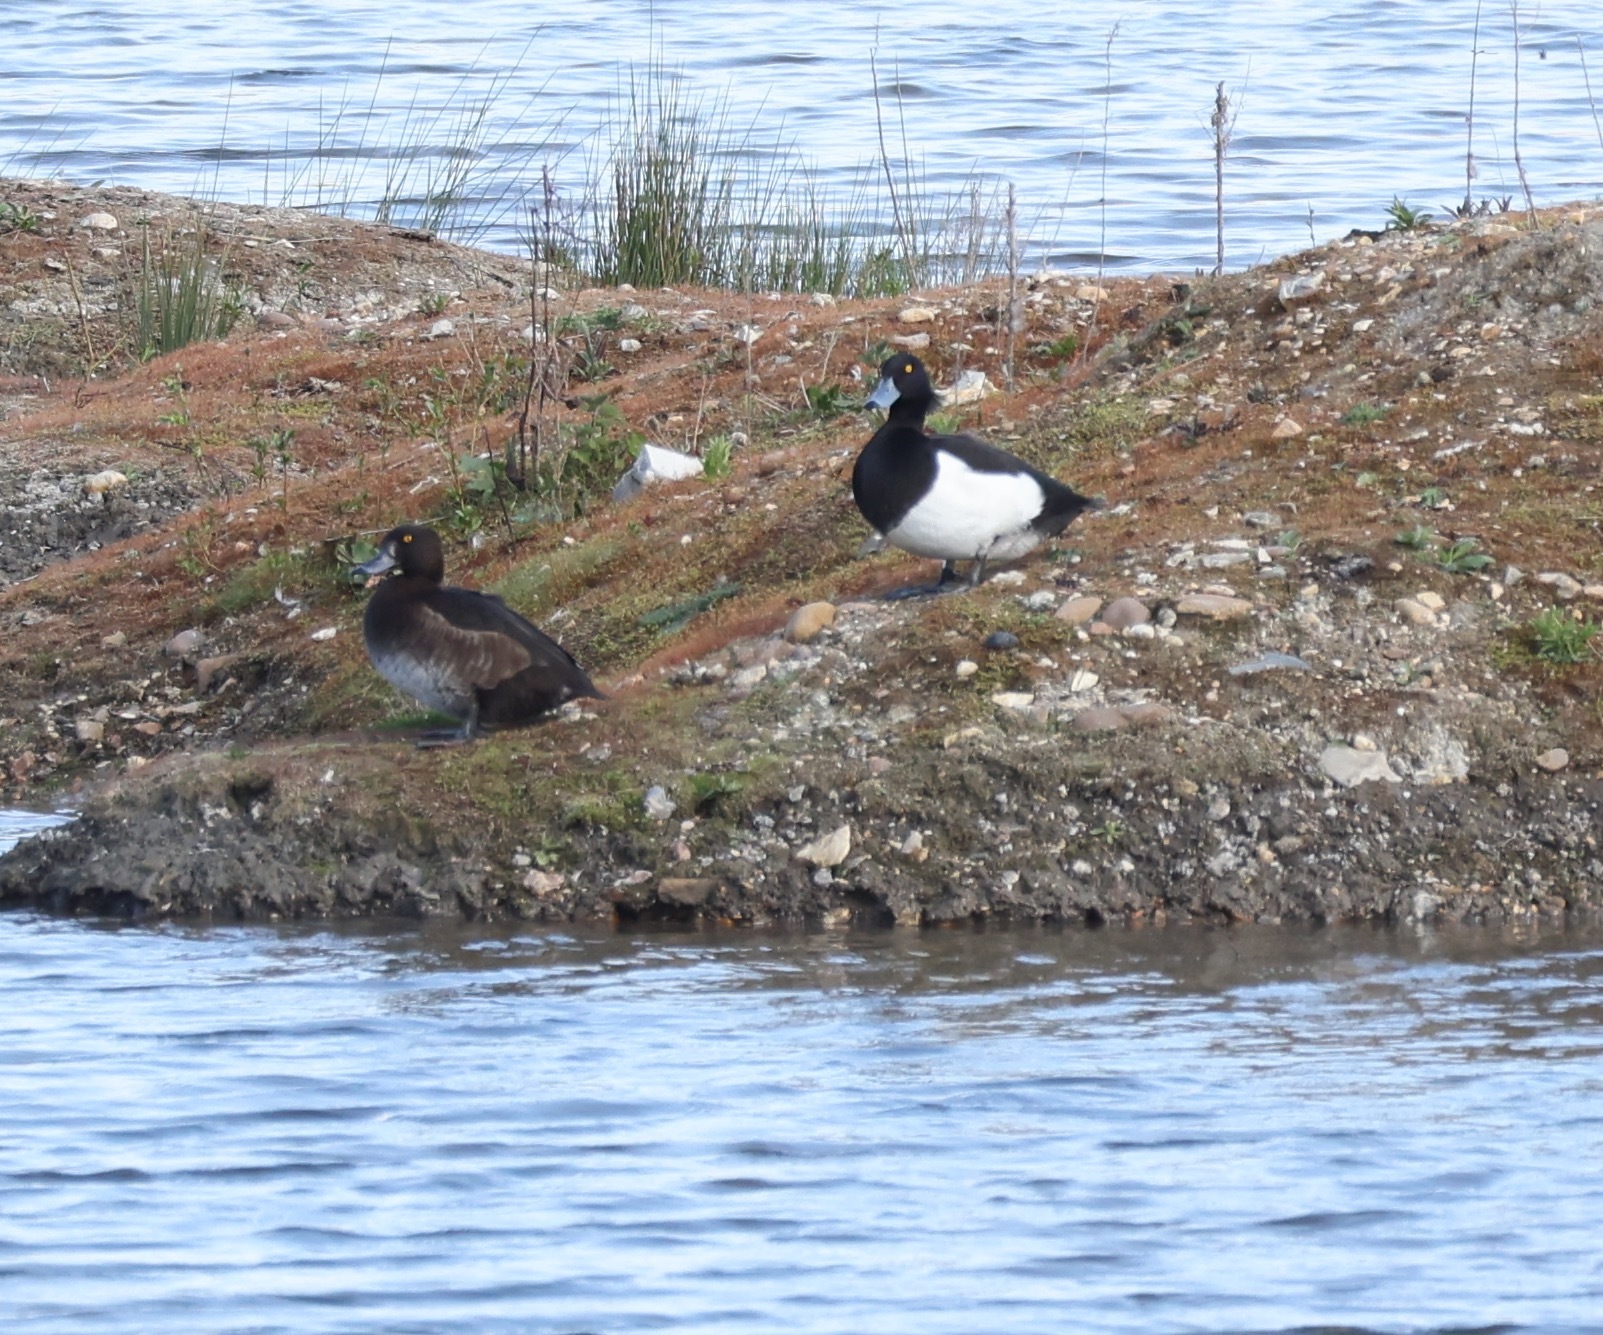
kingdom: Animalia
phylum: Chordata
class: Aves
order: Anseriformes
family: Anatidae
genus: Aythya
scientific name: Aythya fuligula
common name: Tufted duck
